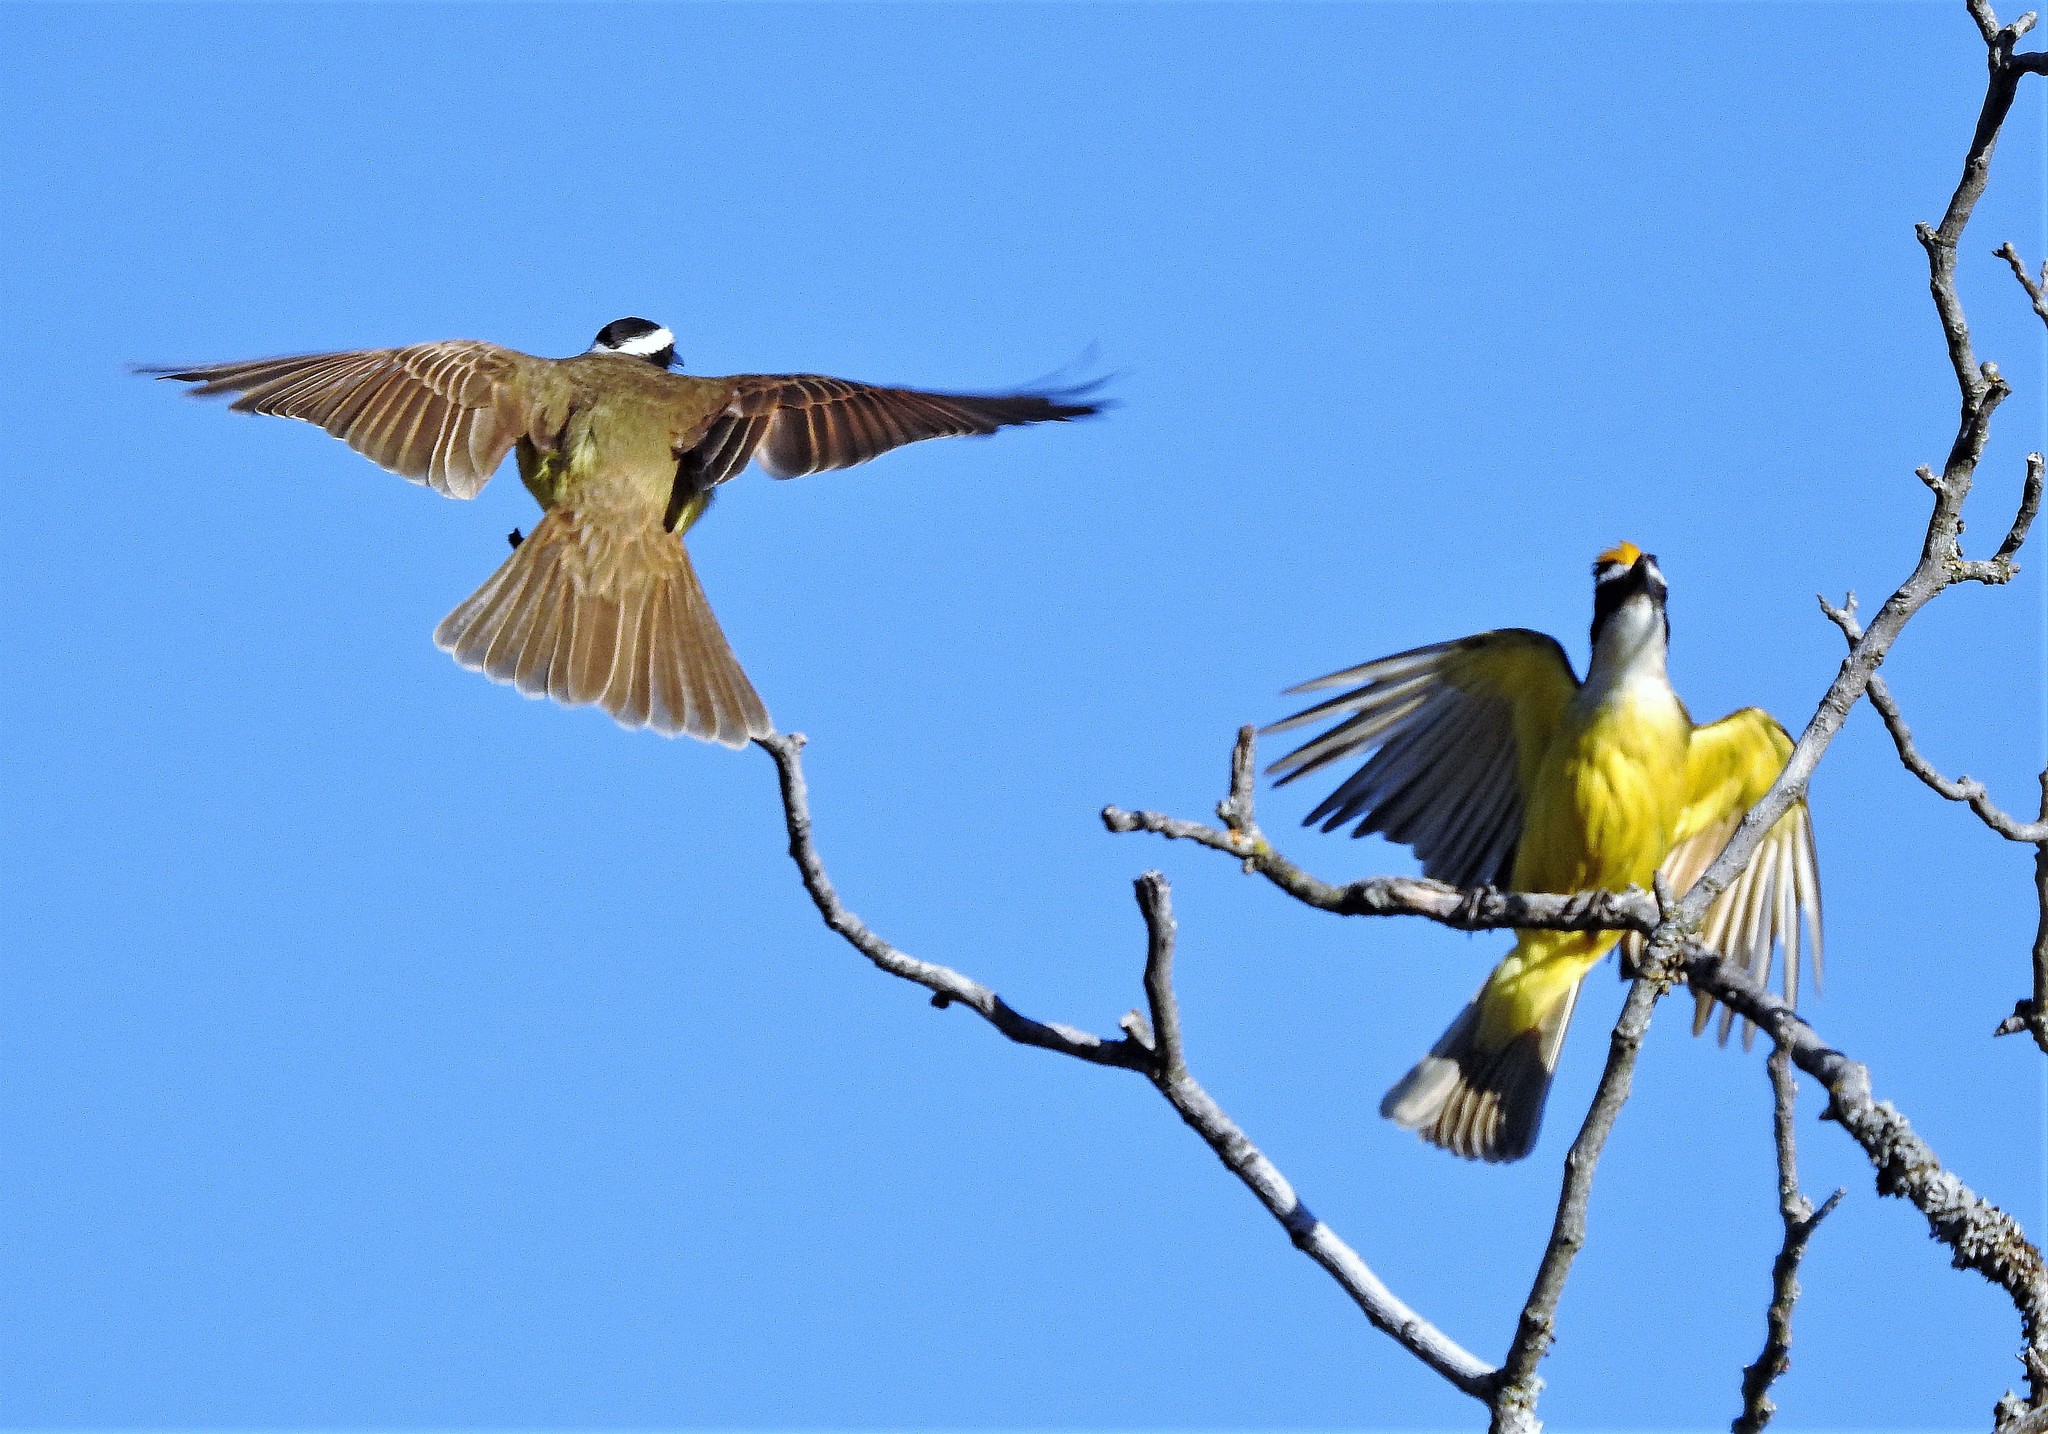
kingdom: Animalia
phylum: Chordata
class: Aves
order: Passeriformes
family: Tyrannidae
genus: Pitangus
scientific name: Pitangus sulphuratus
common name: Great kiskadee
